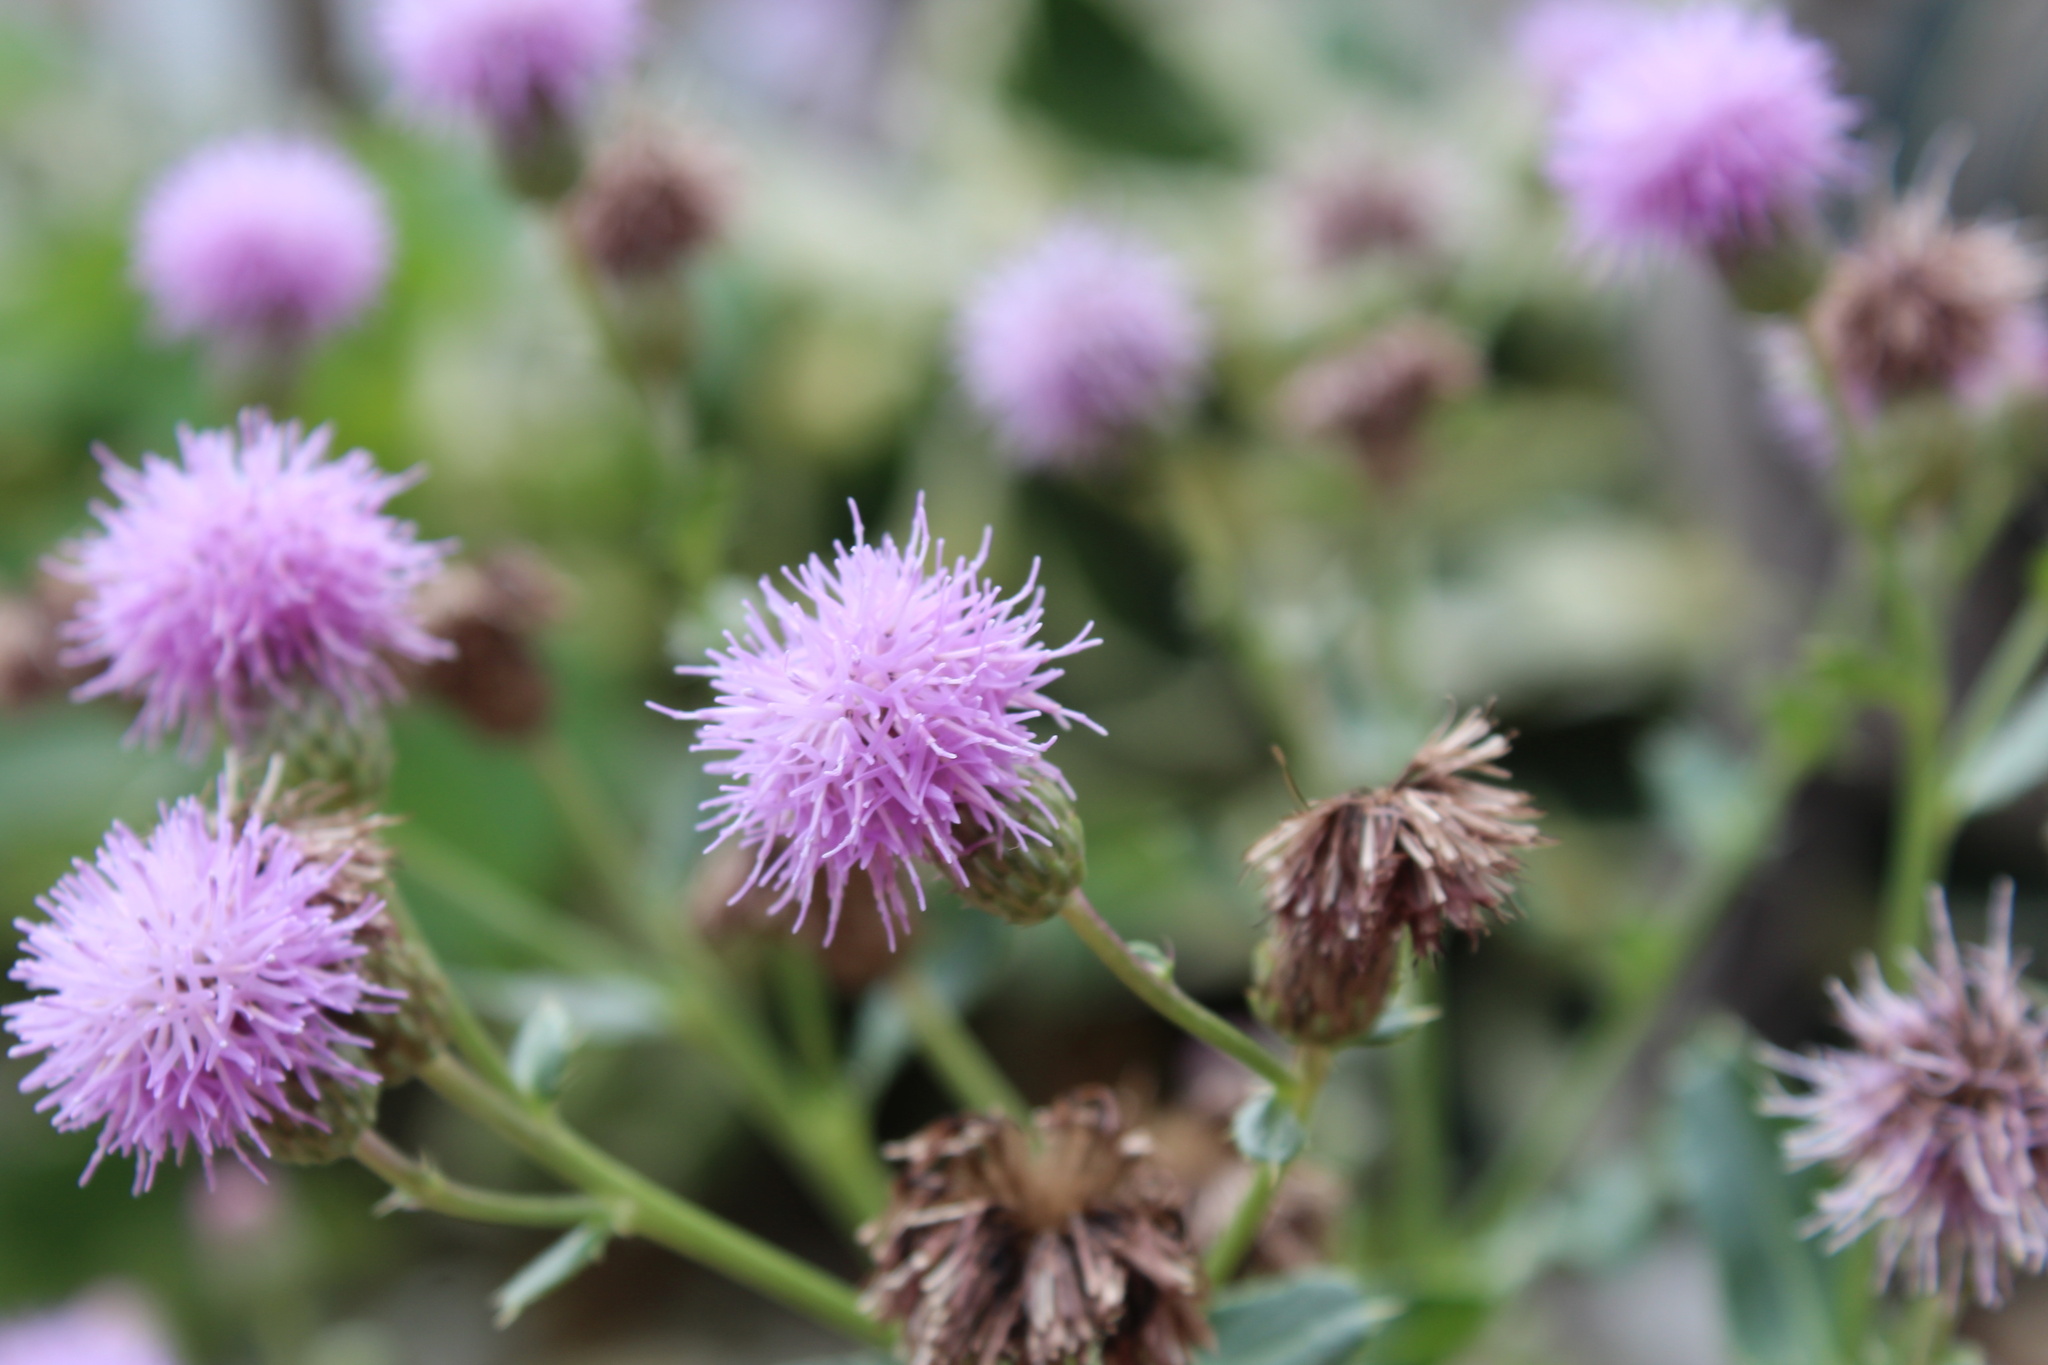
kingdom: Plantae
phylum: Tracheophyta
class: Magnoliopsida
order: Asterales
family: Asteraceae
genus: Cirsium
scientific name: Cirsium arvense
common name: Creeping thistle
